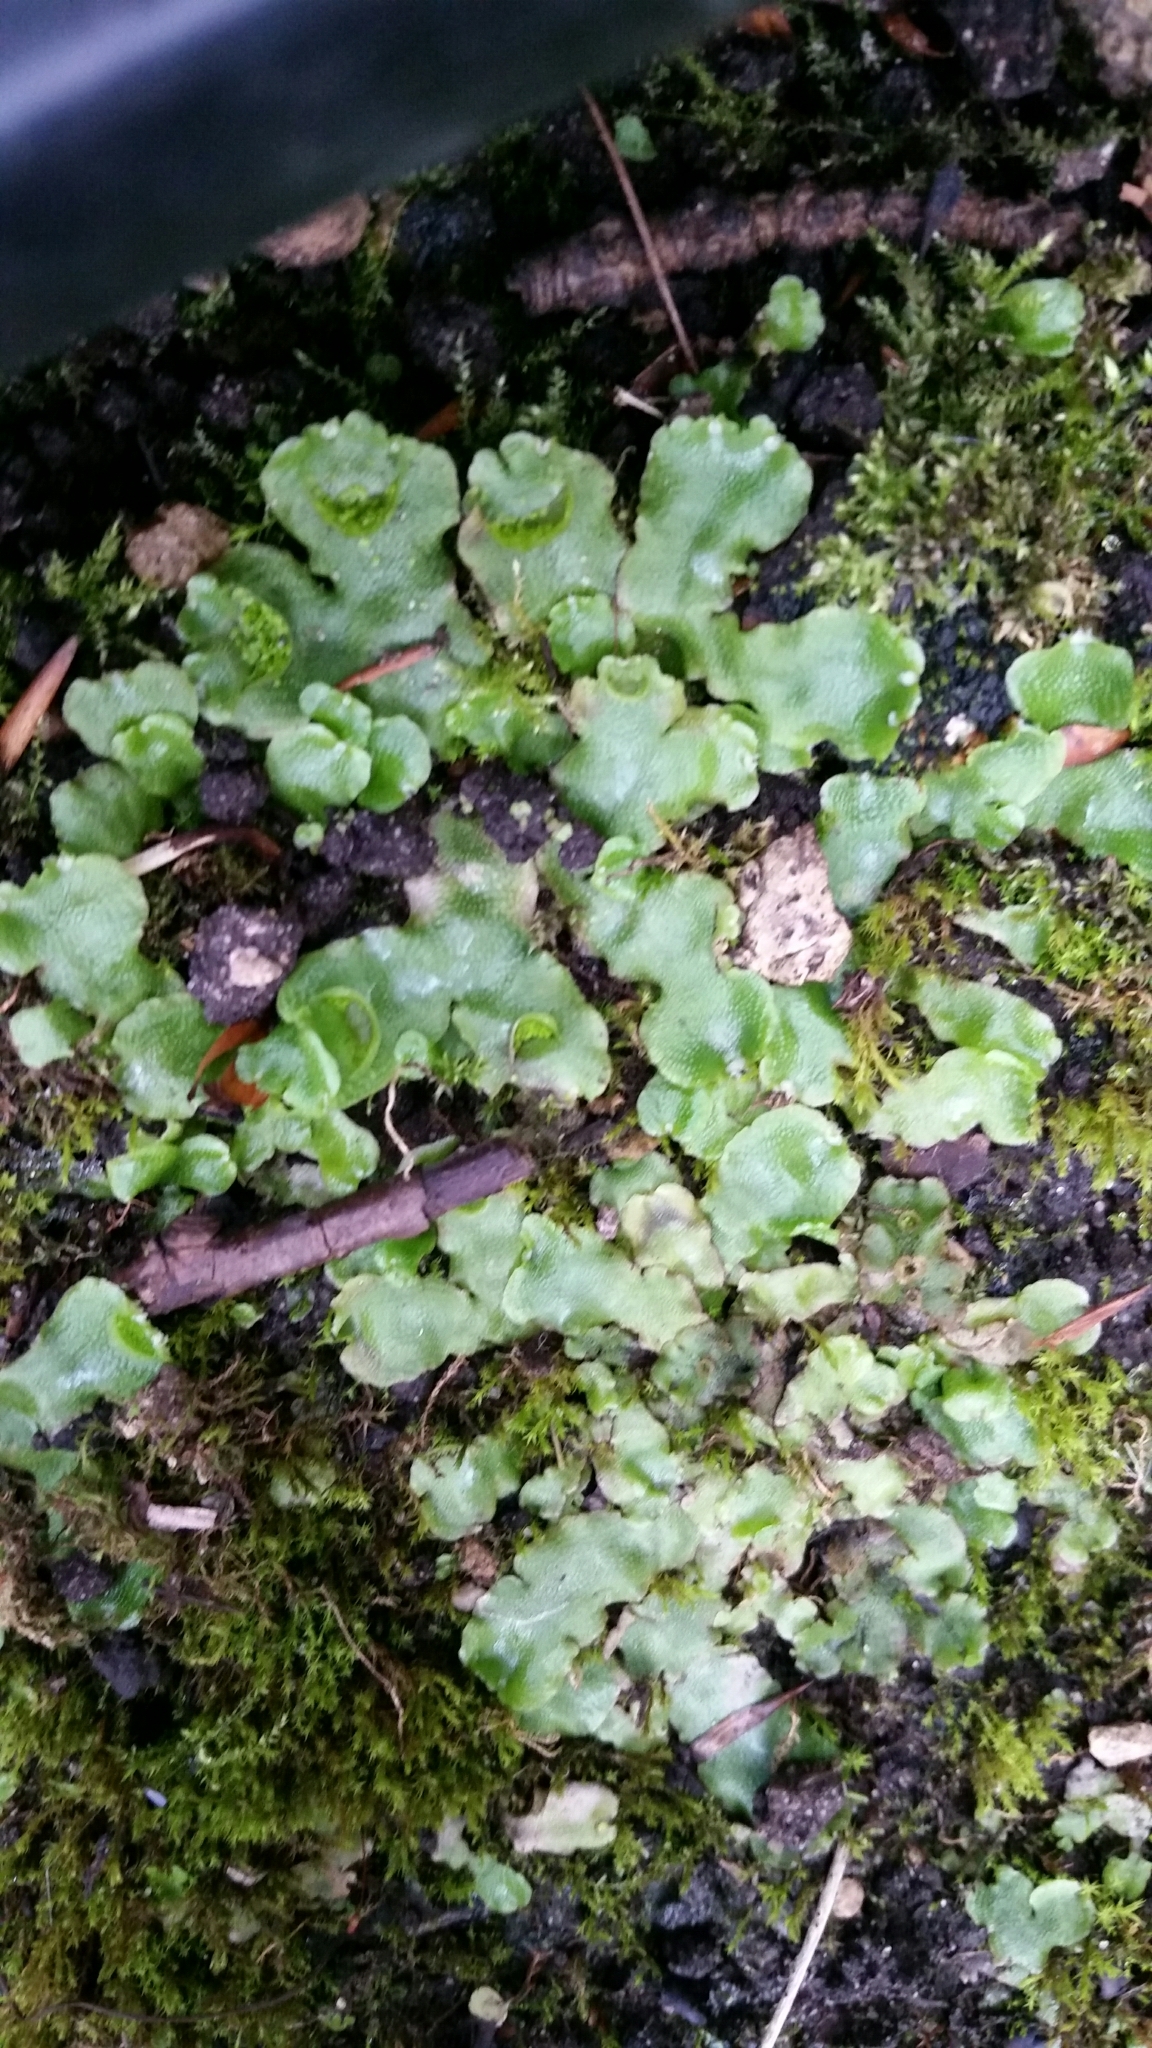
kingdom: Plantae
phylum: Marchantiophyta
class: Marchantiopsida
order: Lunulariales
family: Lunulariaceae
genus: Lunularia
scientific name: Lunularia cruciata
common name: Crescent-cup liverwort
